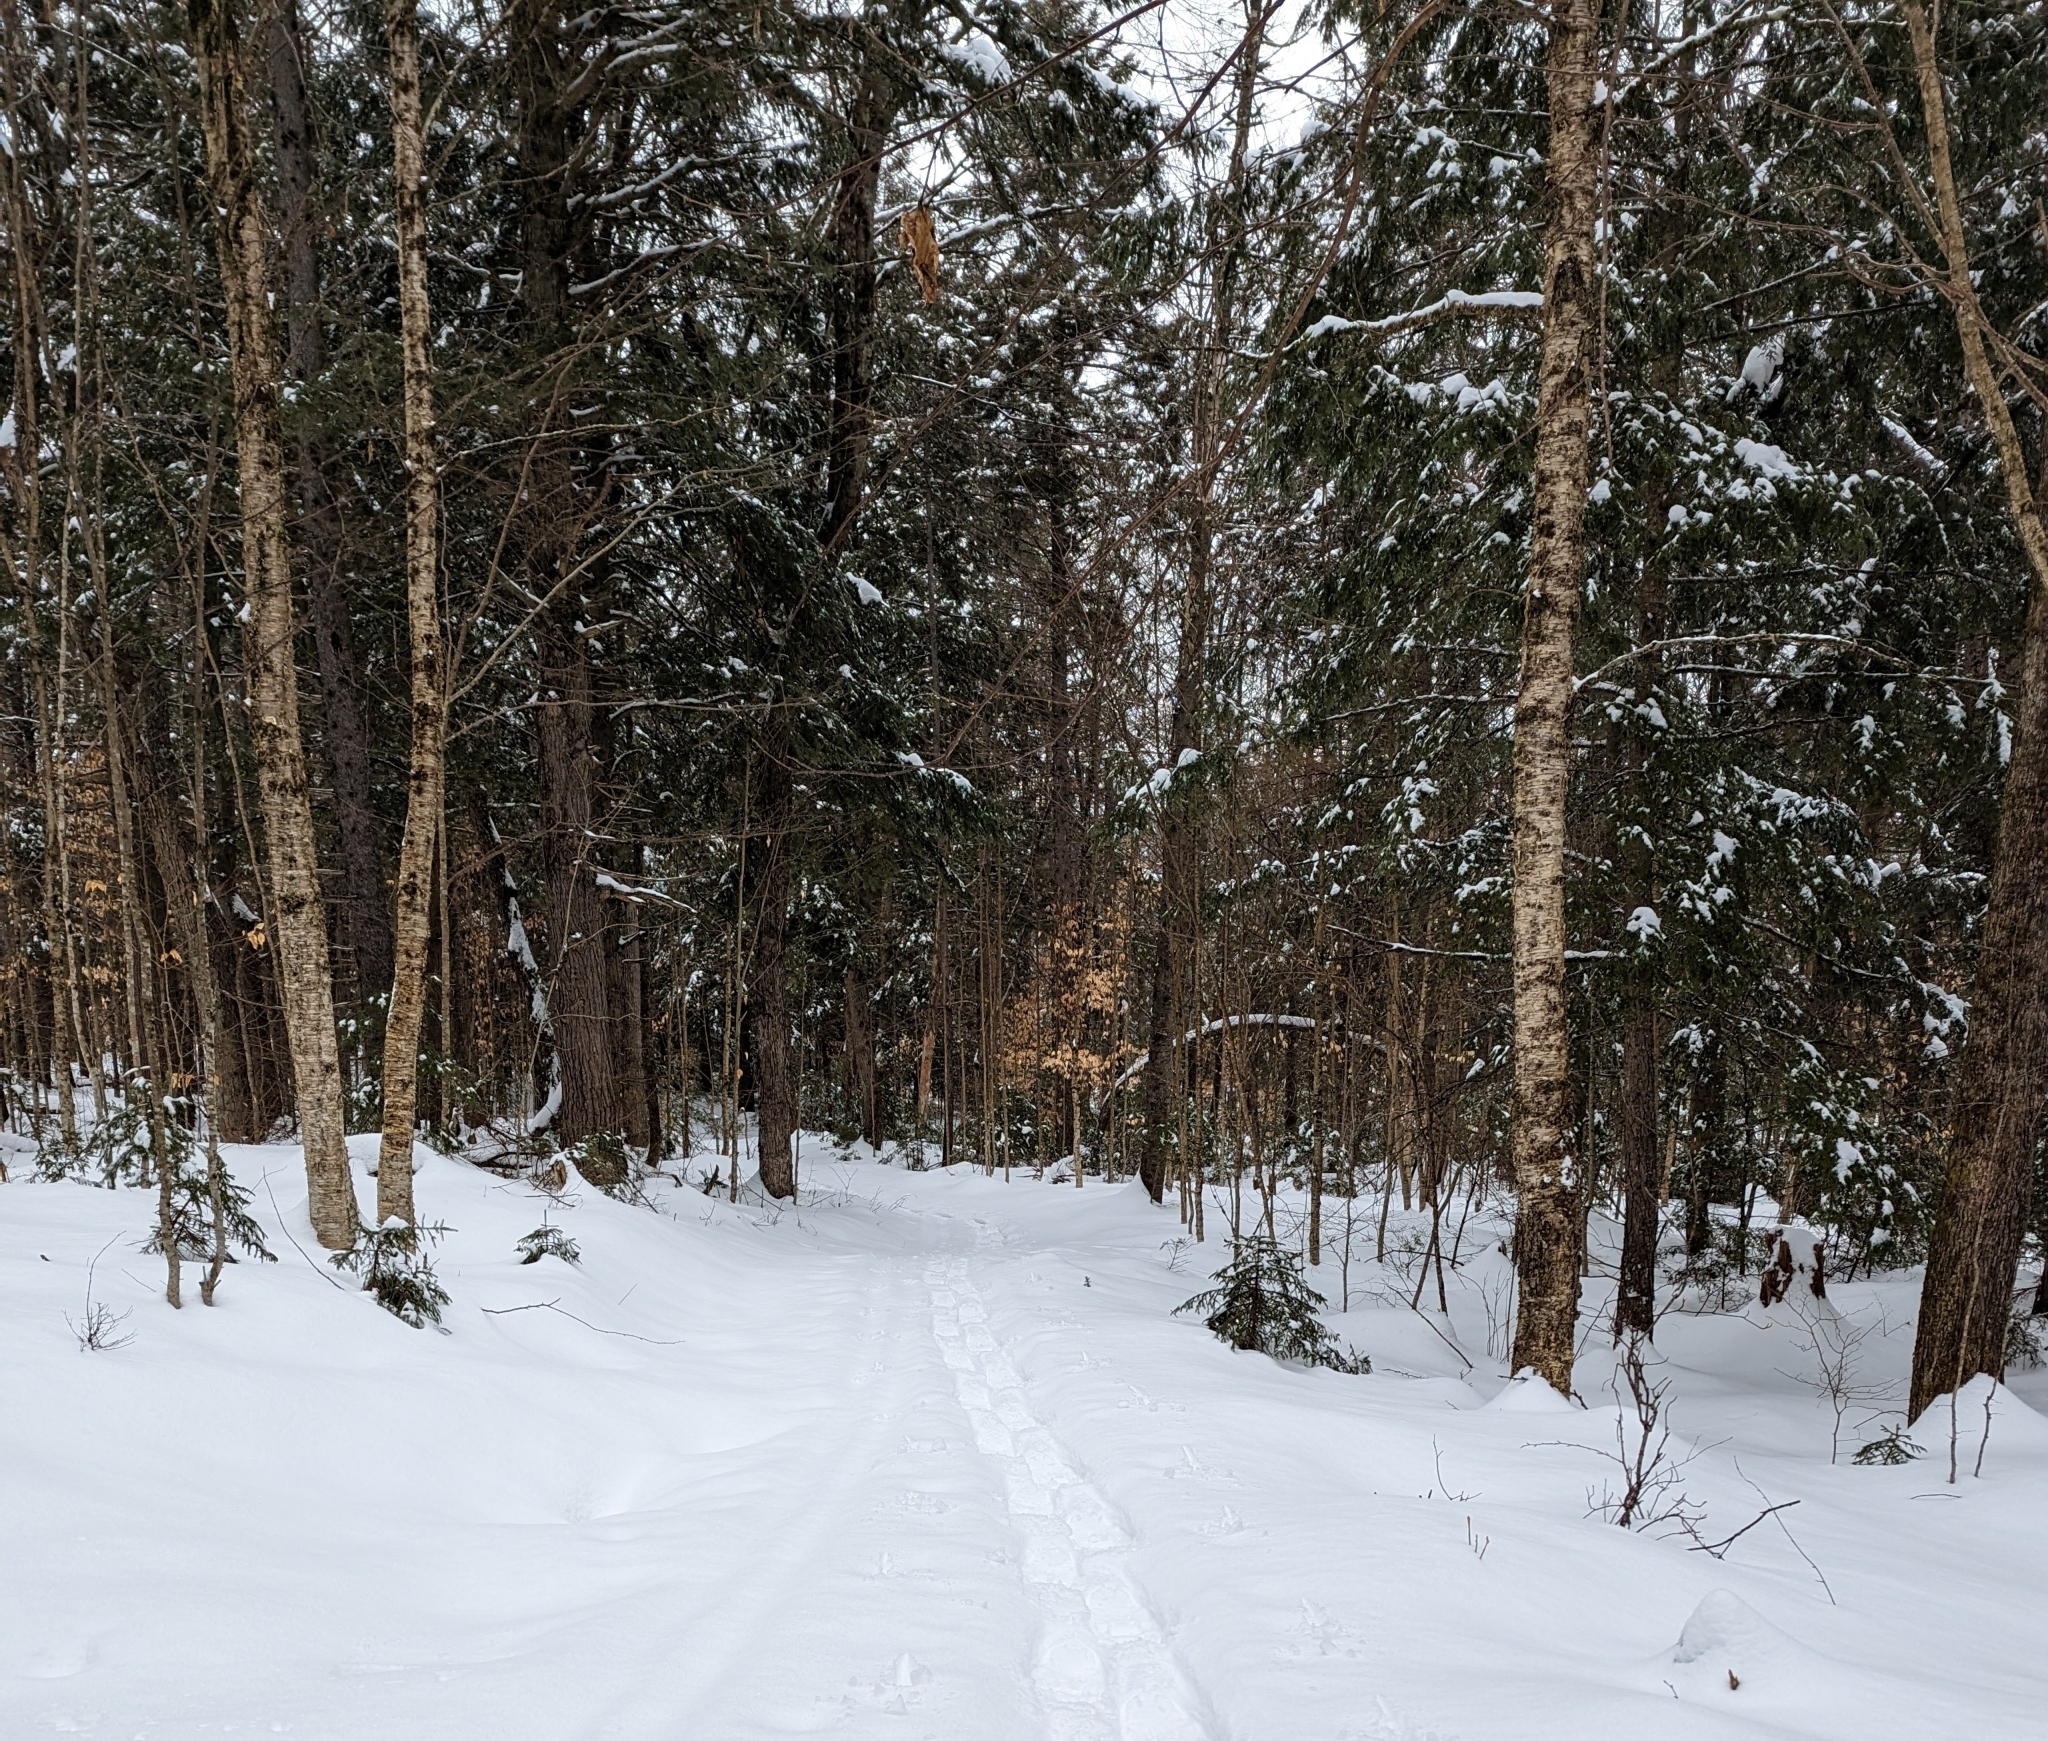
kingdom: Plantae
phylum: Tracheophyta
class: Magnoliopsida
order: Fagales
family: Betulaceae
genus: Betula
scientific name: Betula alleghaniensis
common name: Yellow birch
